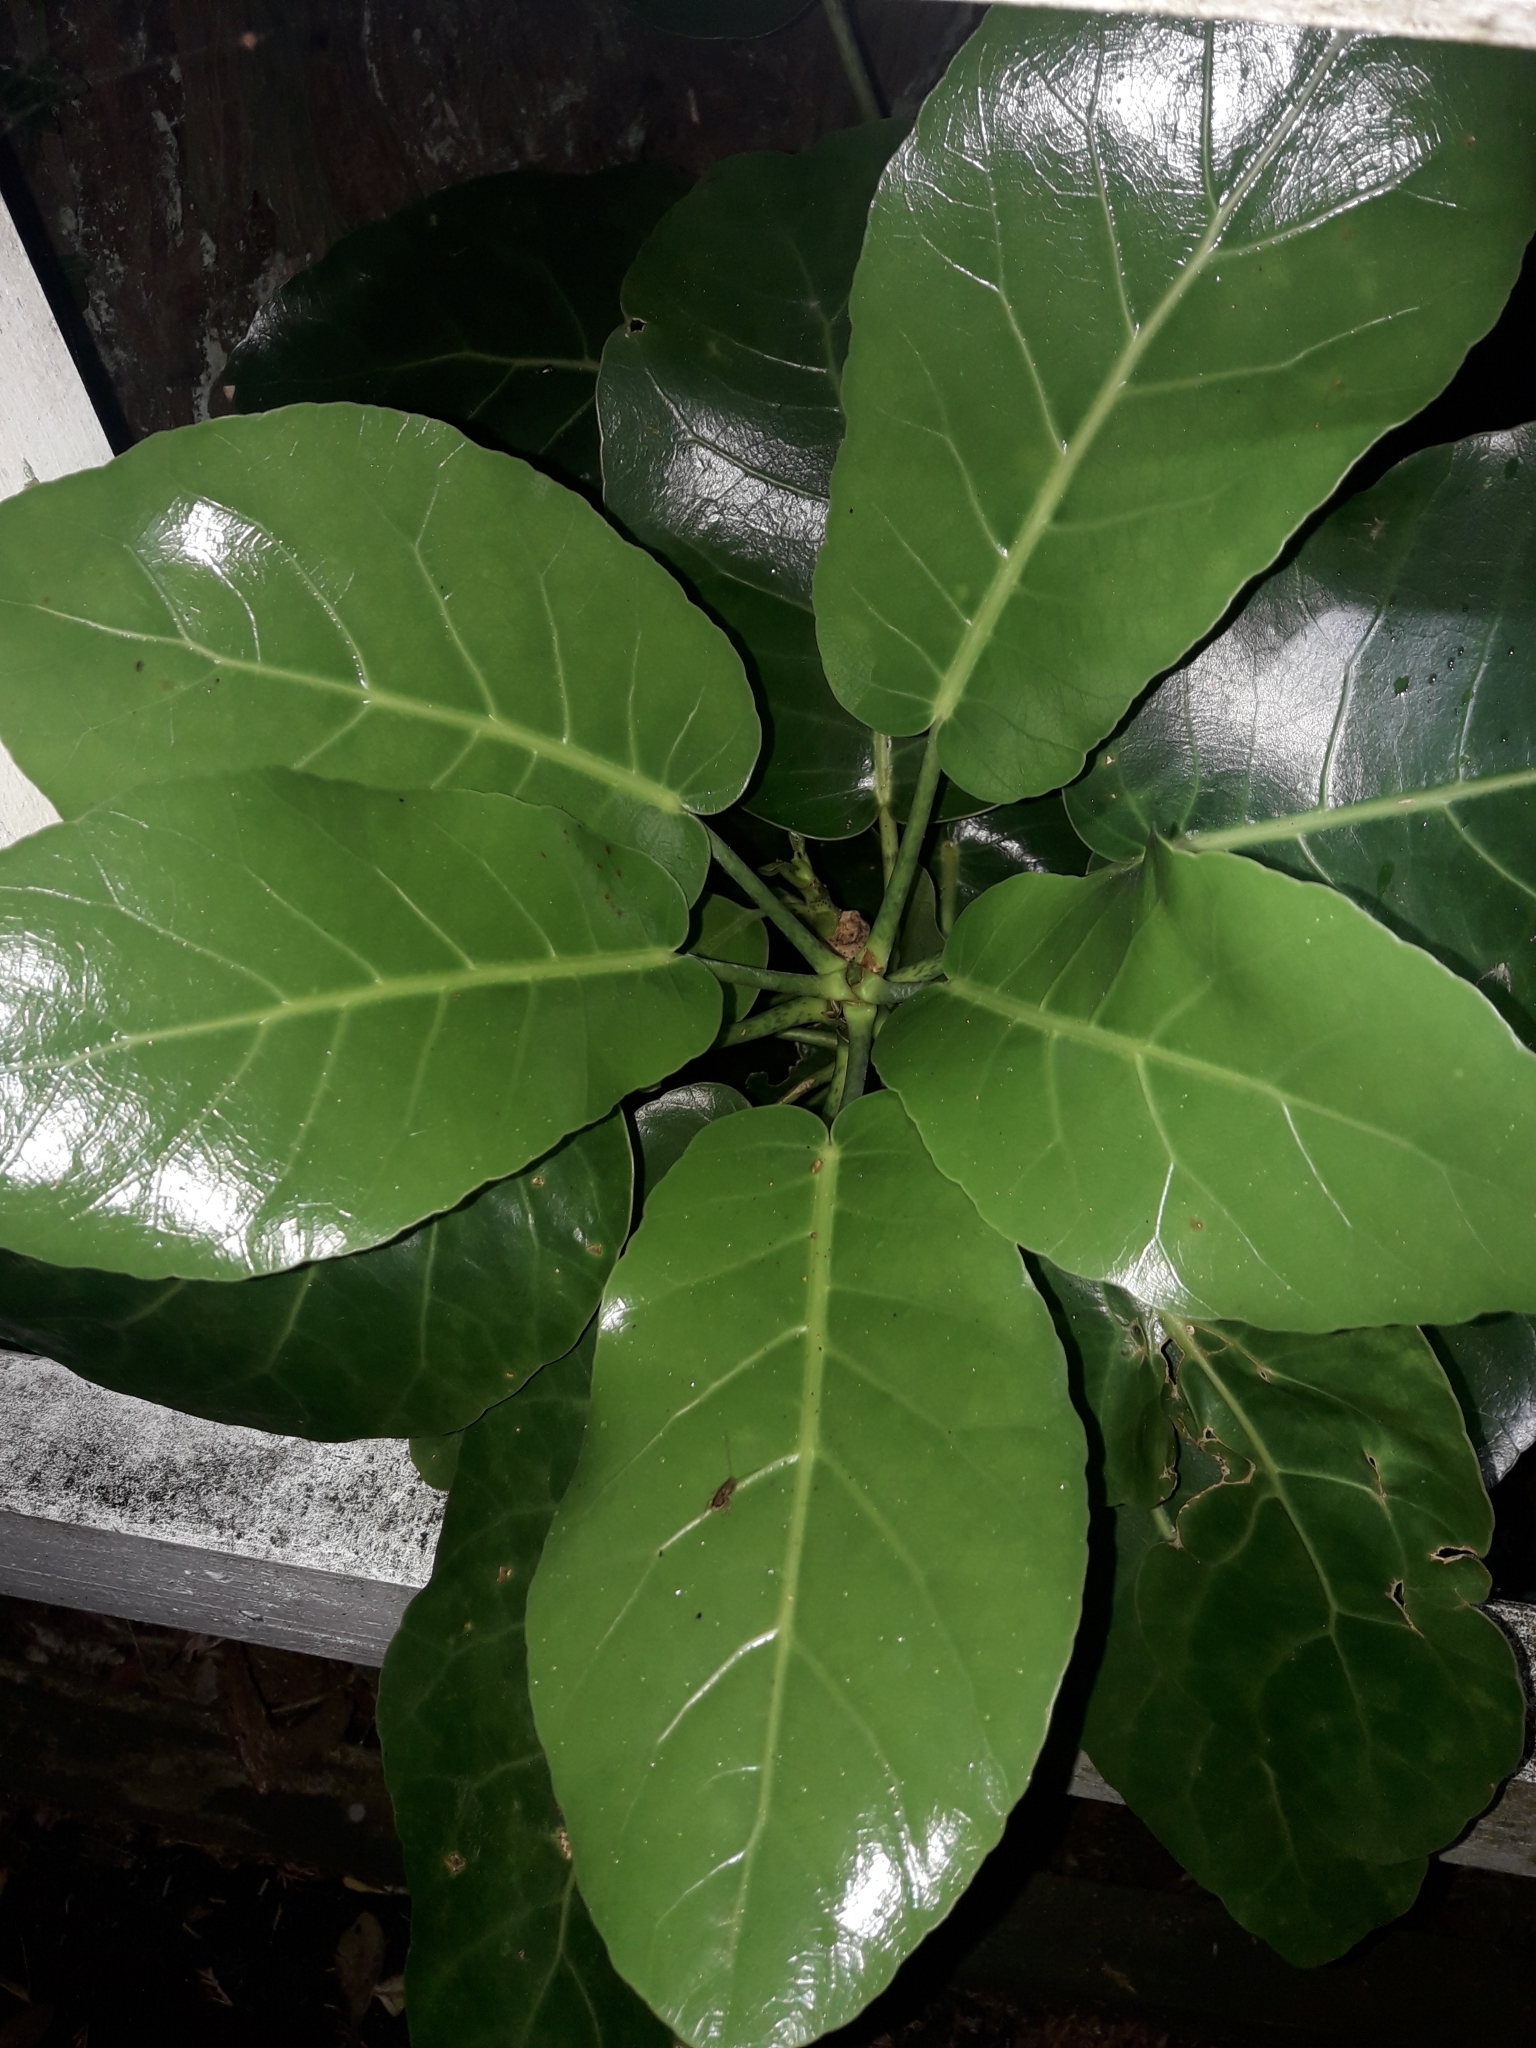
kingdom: Plantae
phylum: Tracheophyta
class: Magnoliopsida
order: Apiales
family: Araliaceae
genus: Meryta
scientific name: Meryta sinclairii
